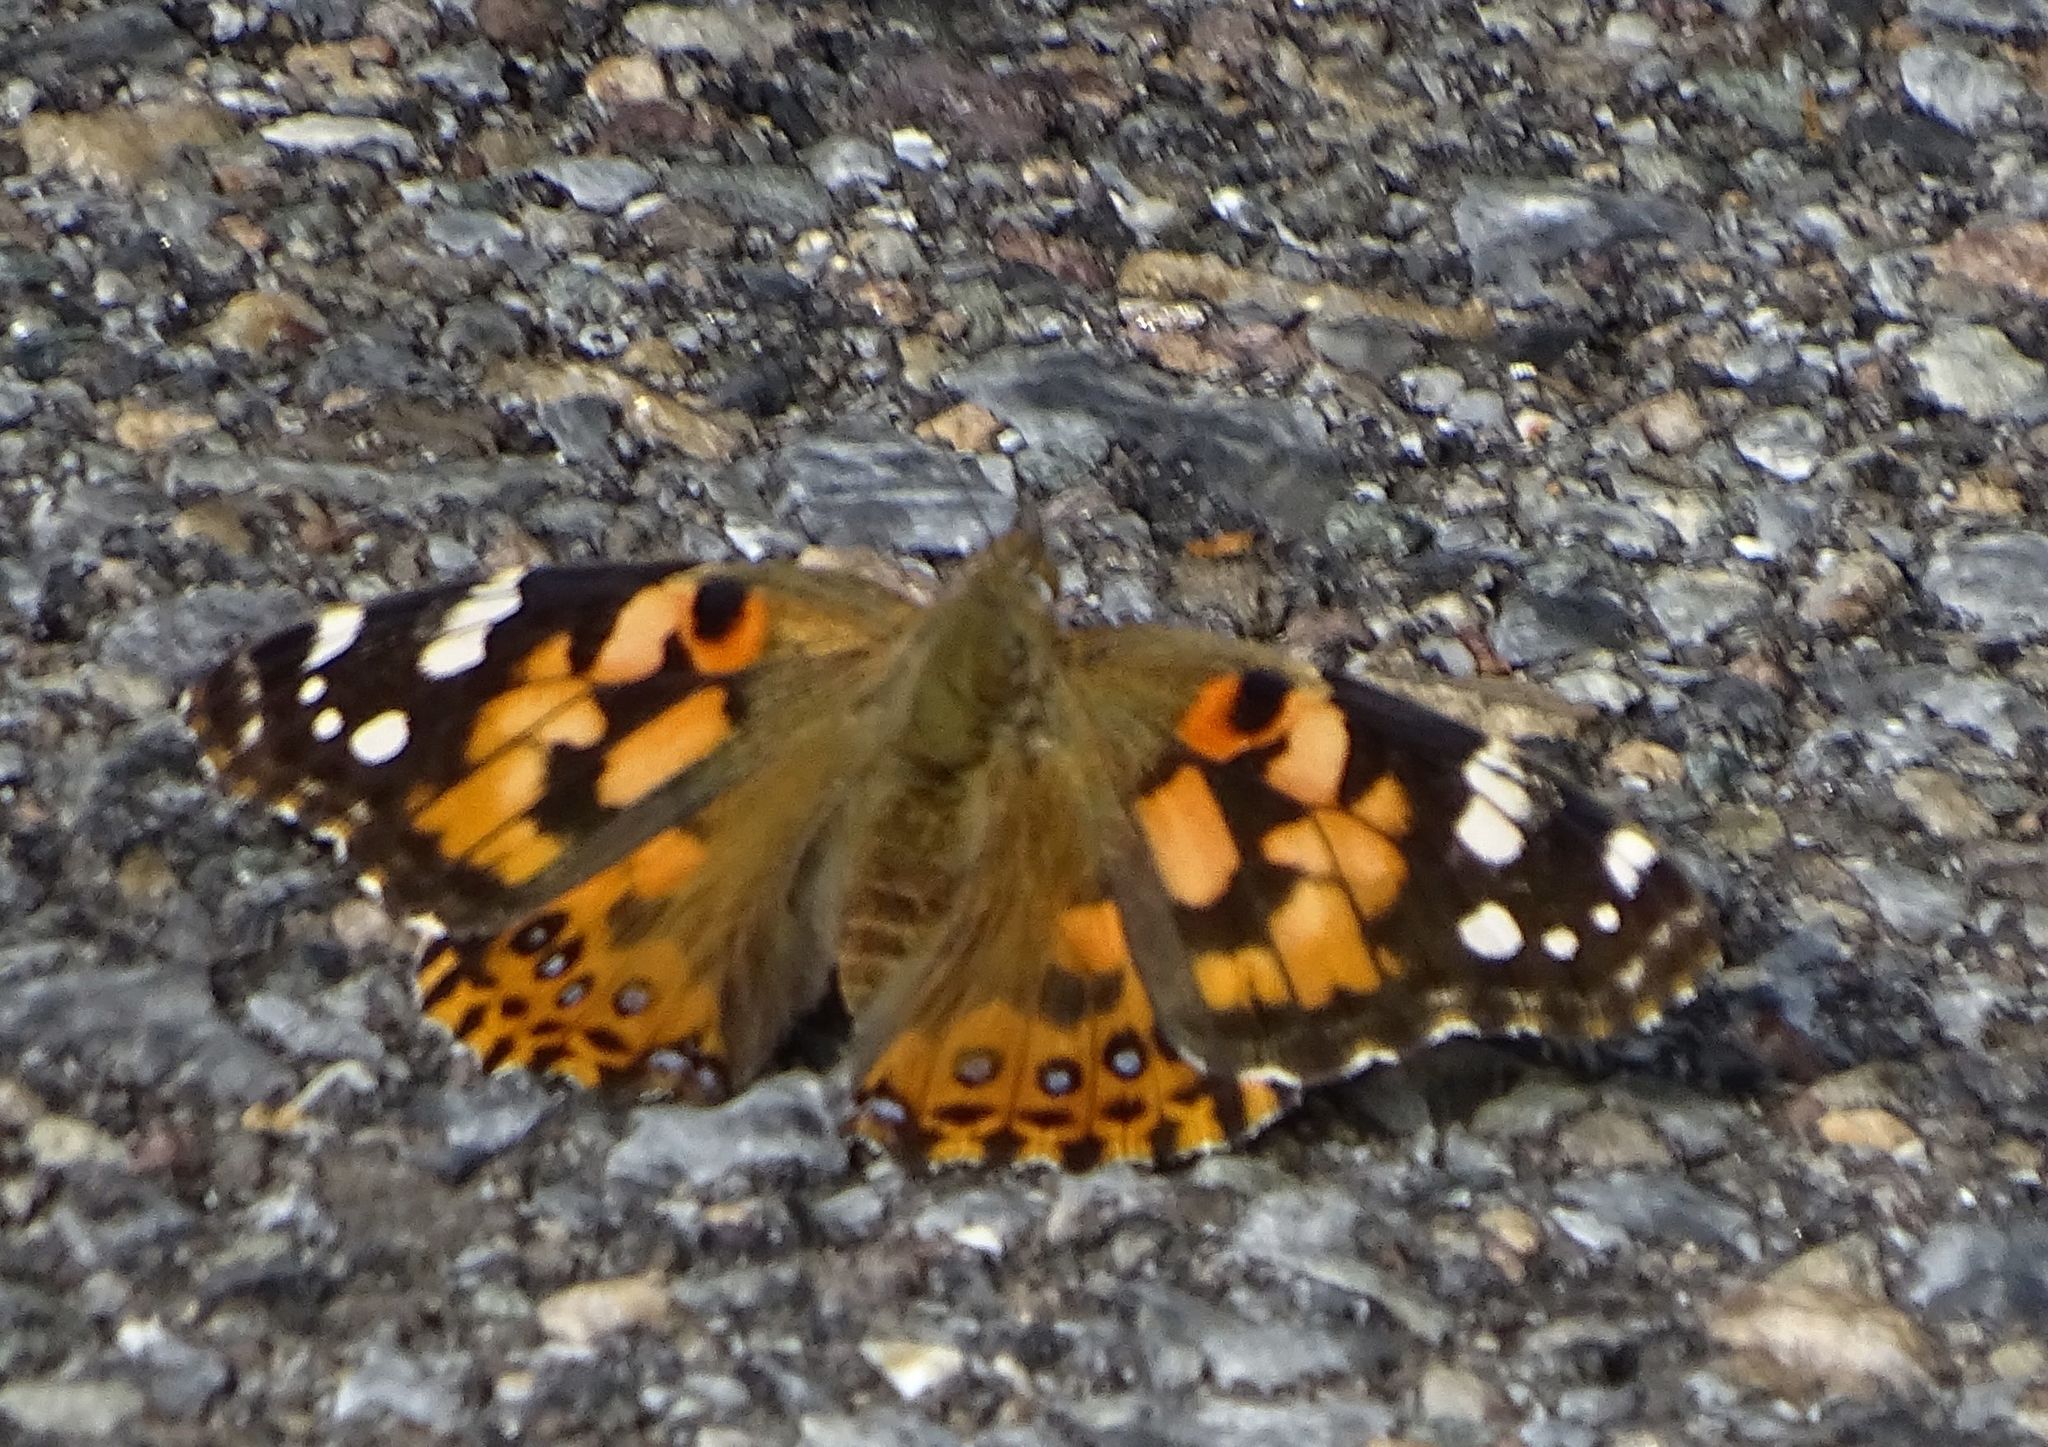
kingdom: Animalia
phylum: Arthropoda
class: Insecta
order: Lepidoptera
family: Nymphalidae
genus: Vanessa
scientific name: Vanessa cardui
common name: Painted lady
